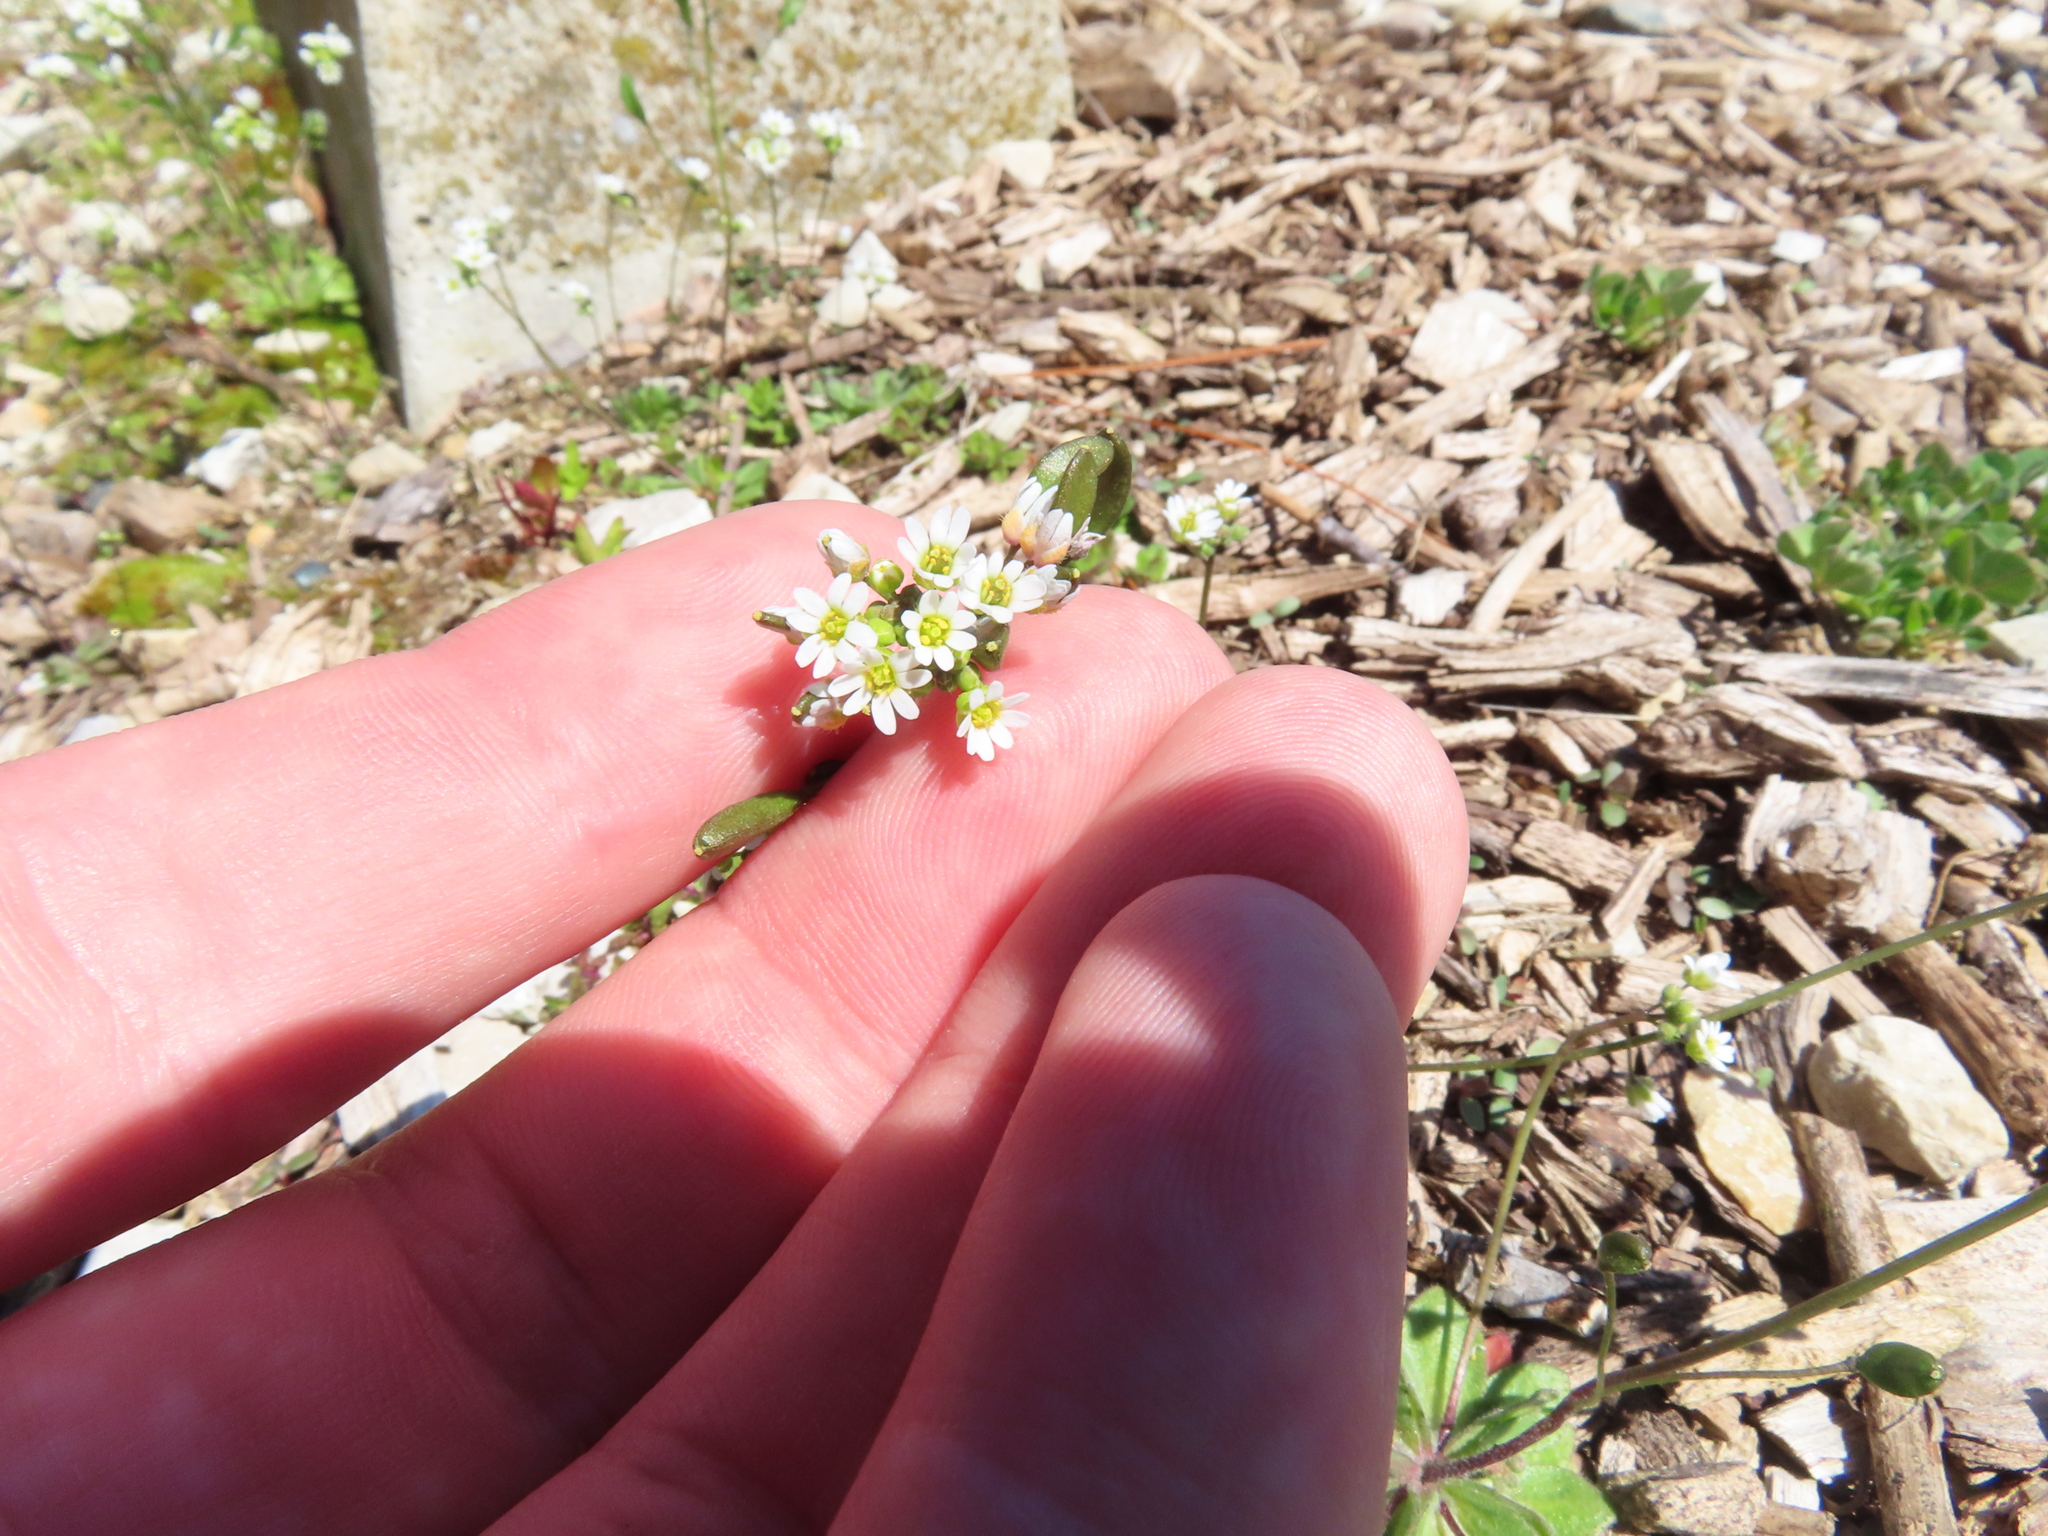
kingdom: Plantae
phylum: Tracheophyta
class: Magnoliopsida
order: Brassicales
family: Brassicaceae
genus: Draba
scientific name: Draba verna
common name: Spring draba
